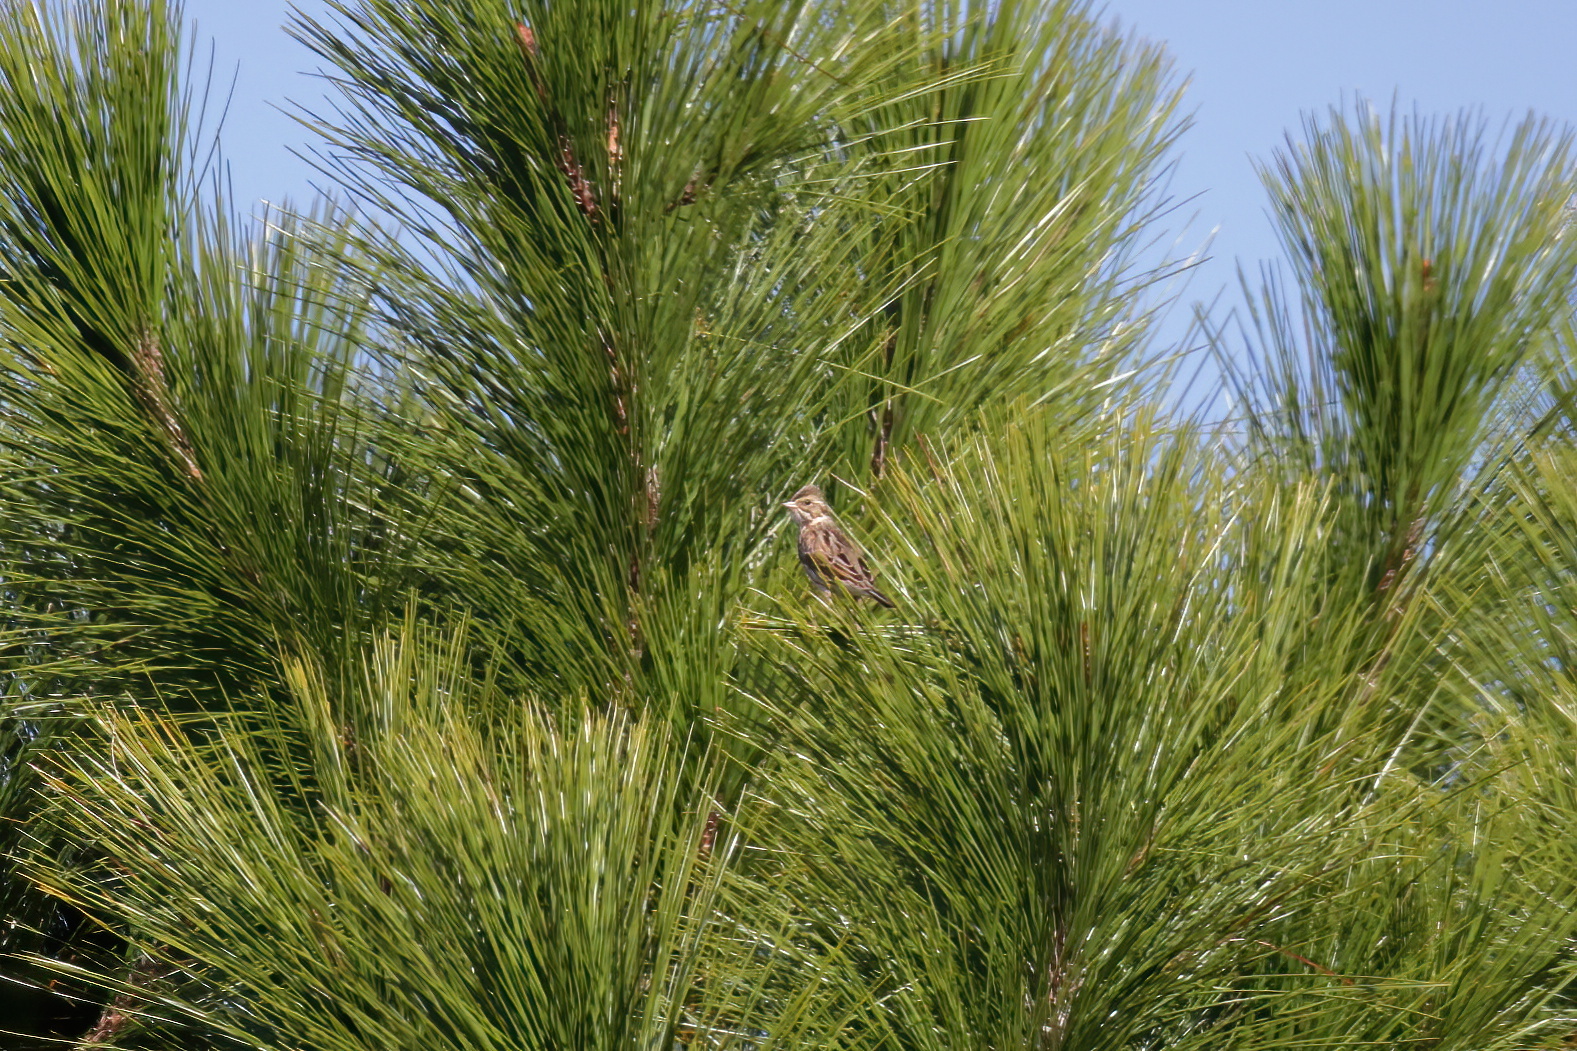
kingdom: Animalia
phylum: Chordata
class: Aves
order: Passeriformes
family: Passerellidae
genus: Passerculus
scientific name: Passerculus sandwichensis
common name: Savannah sparrow
